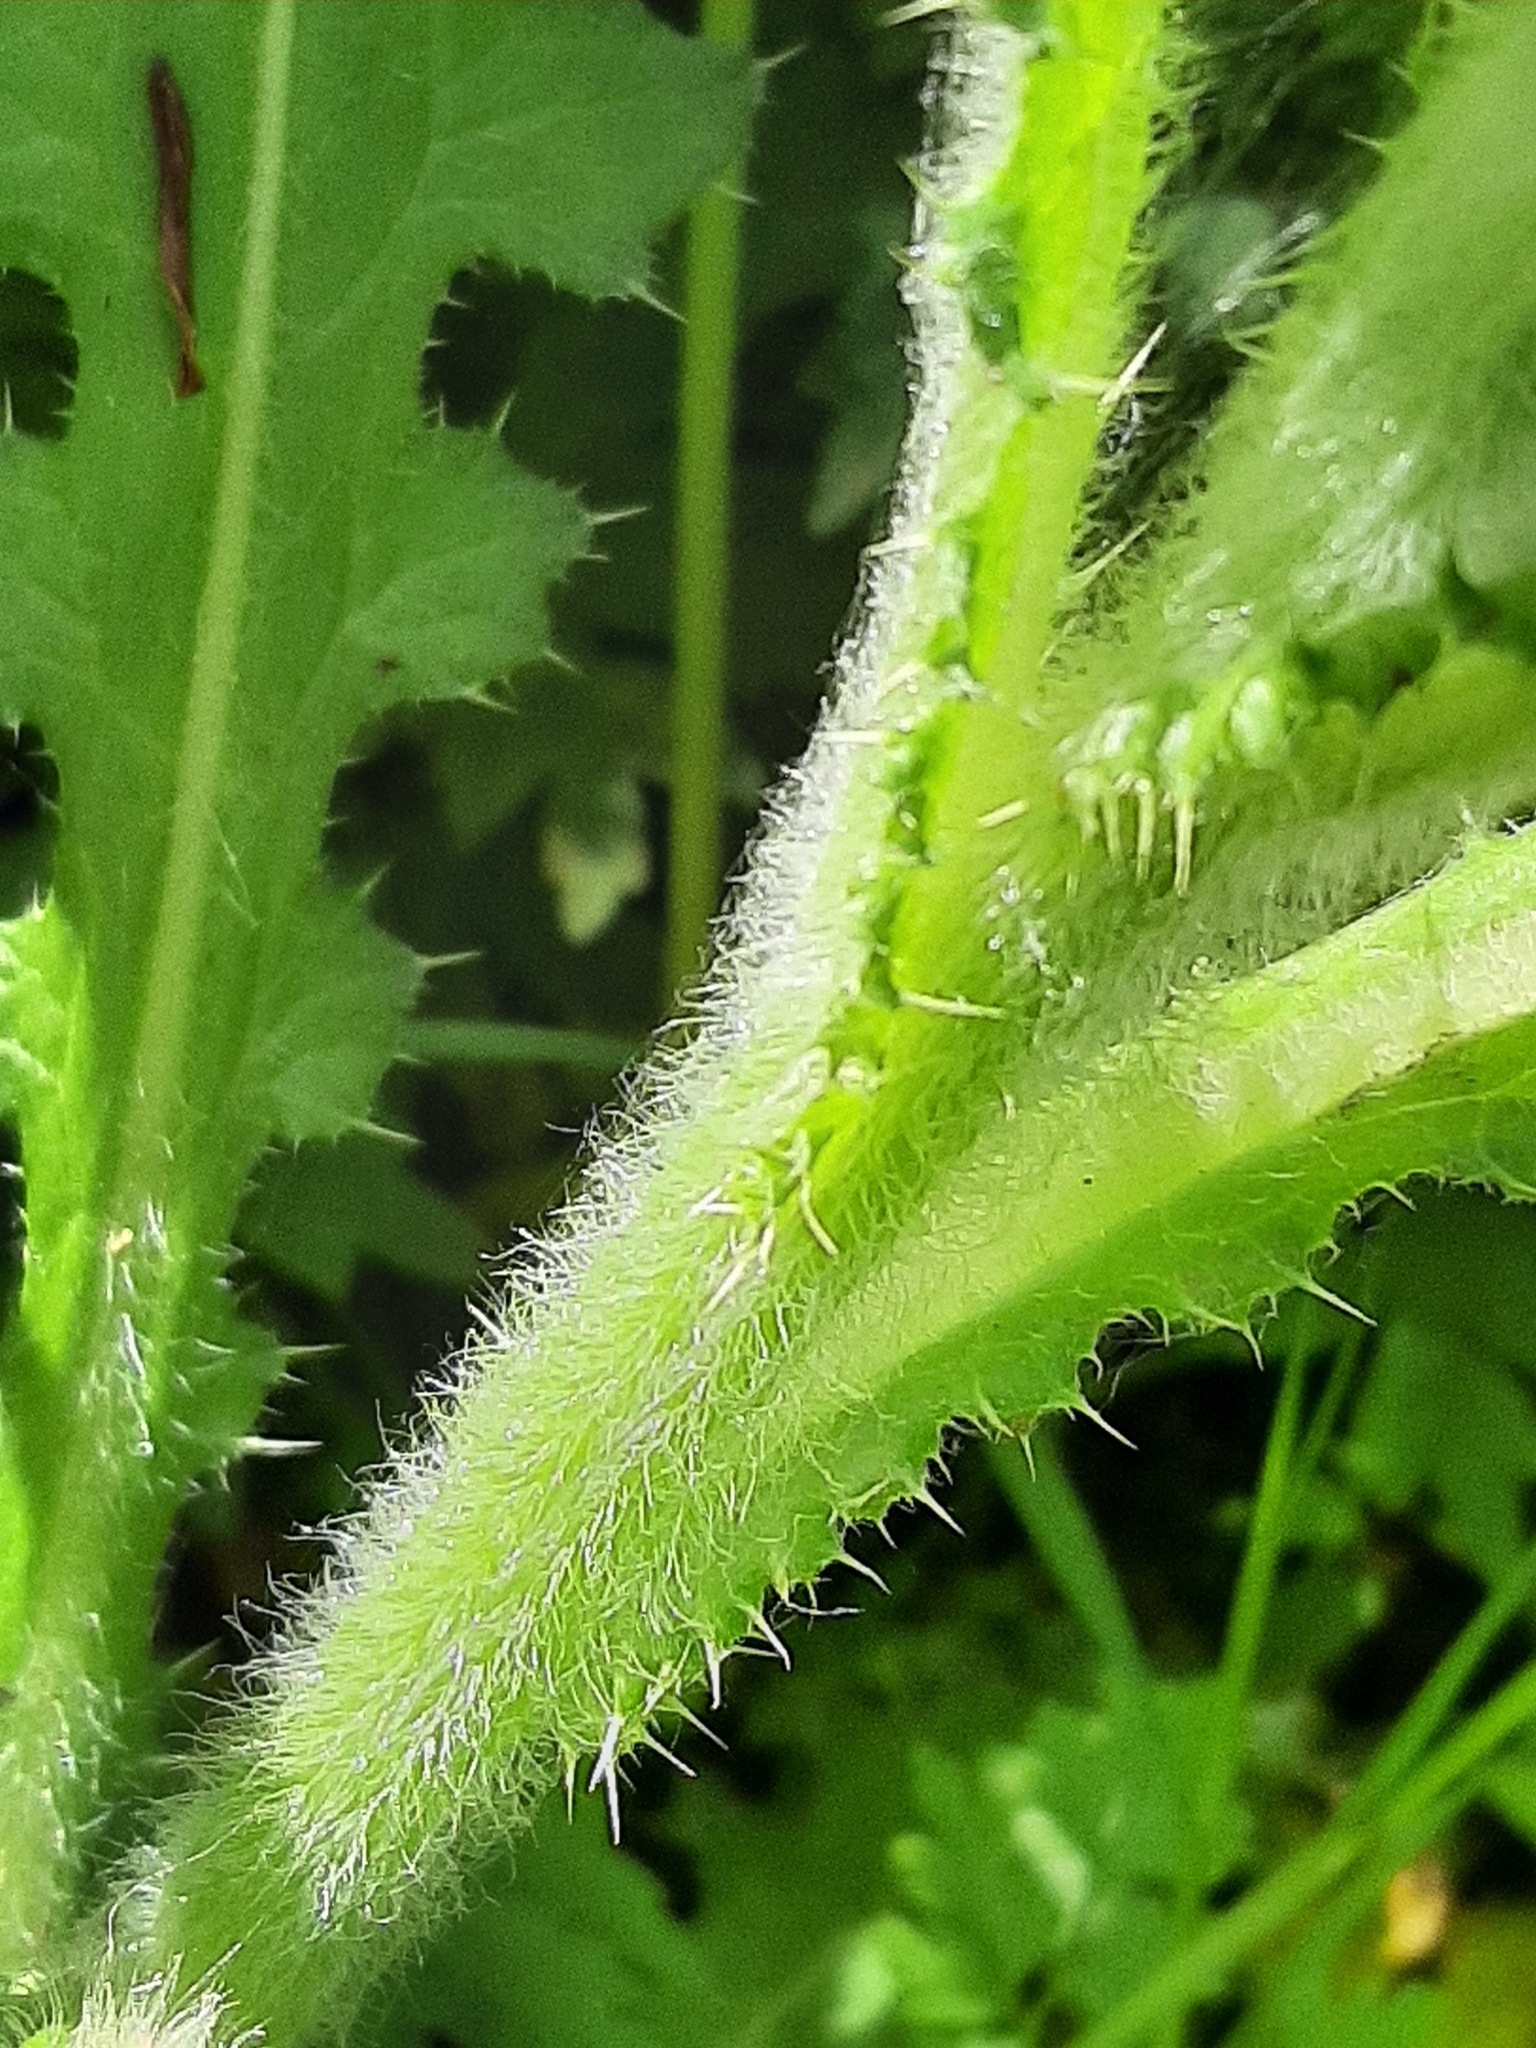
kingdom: Plantae
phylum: Tracheophyta
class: Magnoliopsida
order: Asterales
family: Asteraceae
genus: Cirsium
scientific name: Cirsium brevistylum
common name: Indian thistle
